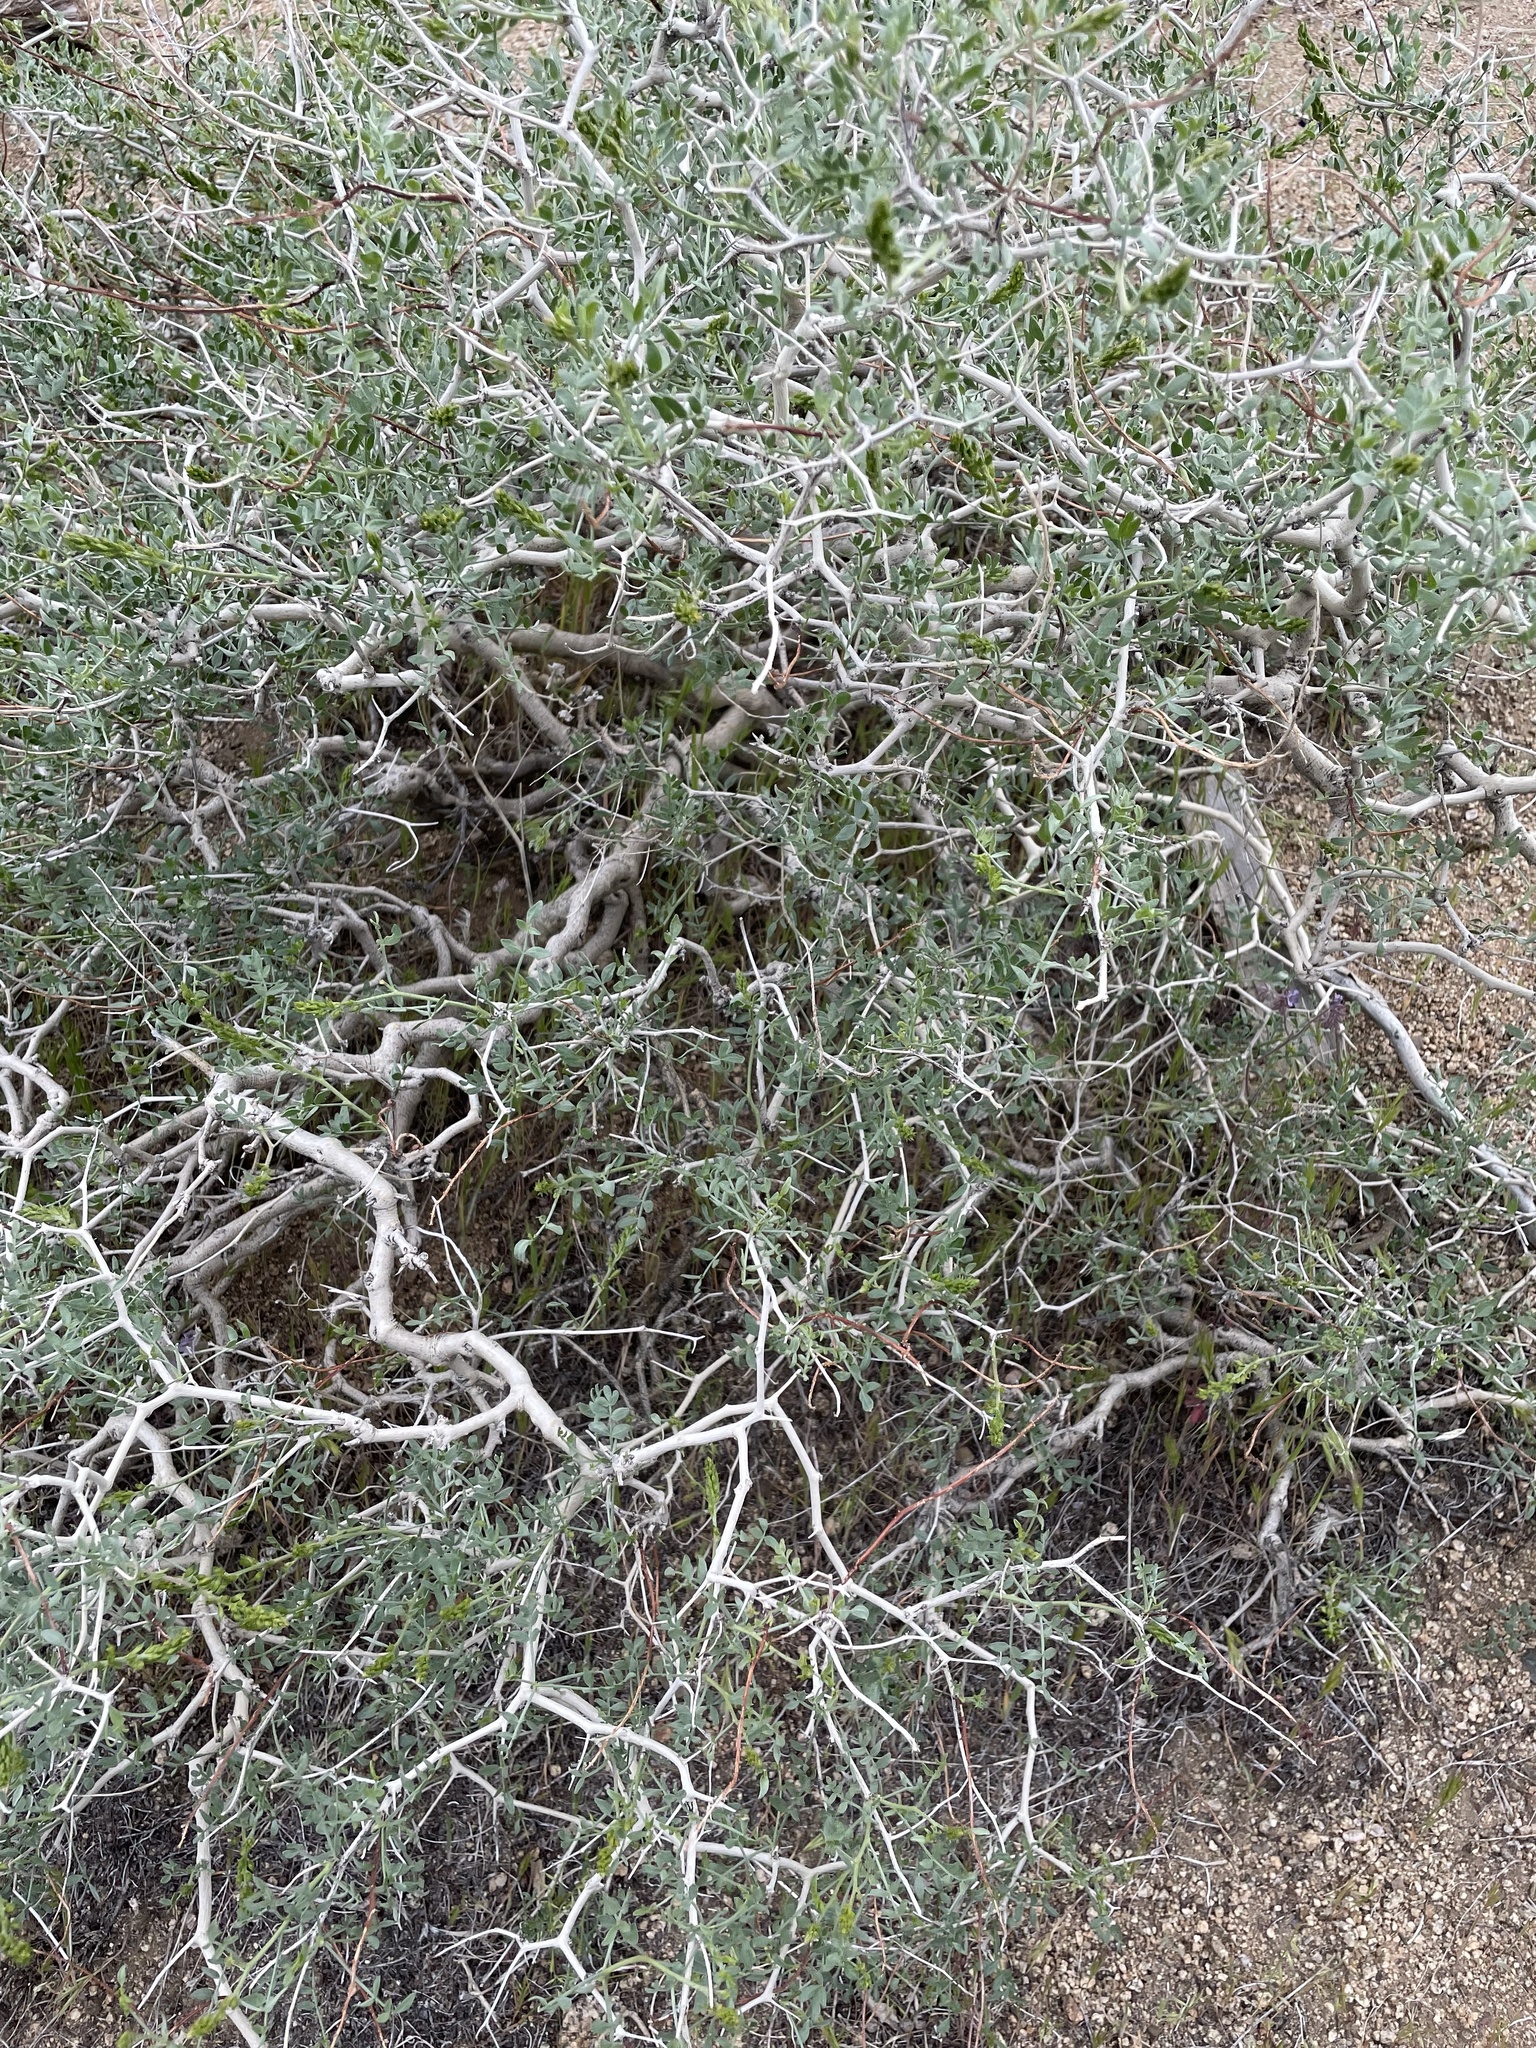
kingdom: Plantae
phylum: Tracheophyta
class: Magnoliopsida
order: Fabales
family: Fabaceae
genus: Psorothamnus
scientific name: Psorothamnus arborescens
